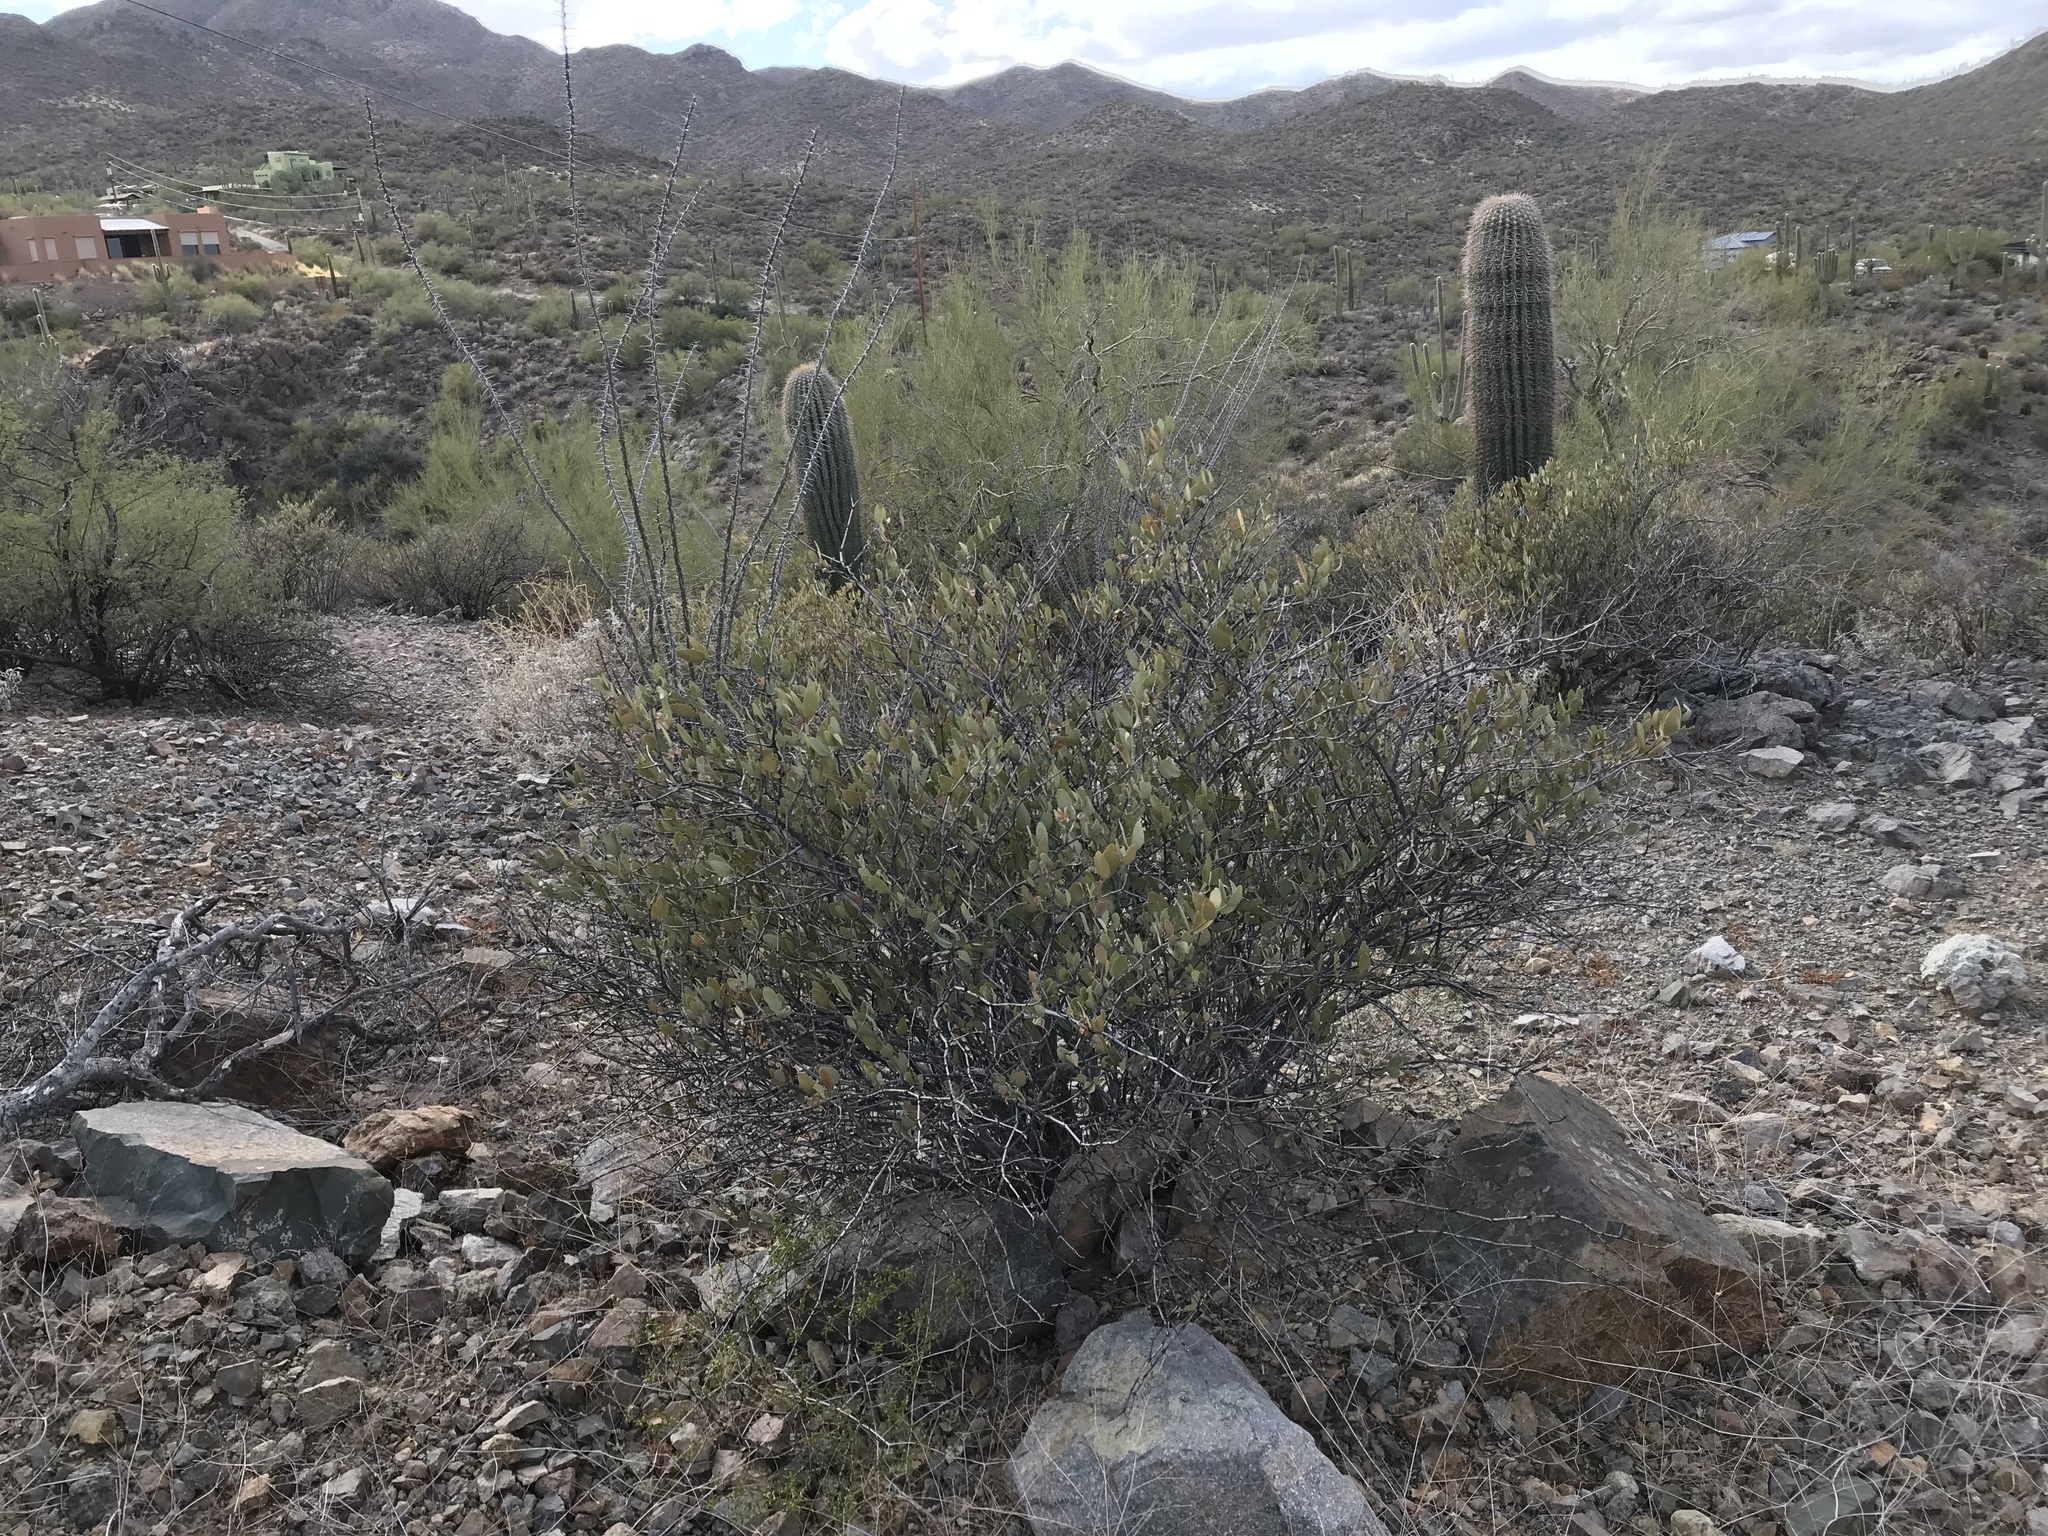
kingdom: Plantae
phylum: Tracheophyta
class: Magnoliopsida
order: Caryophyllales
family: Simmondsiaceae
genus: Simmondsia
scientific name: Simmondsia chinensis
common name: Jojoba
